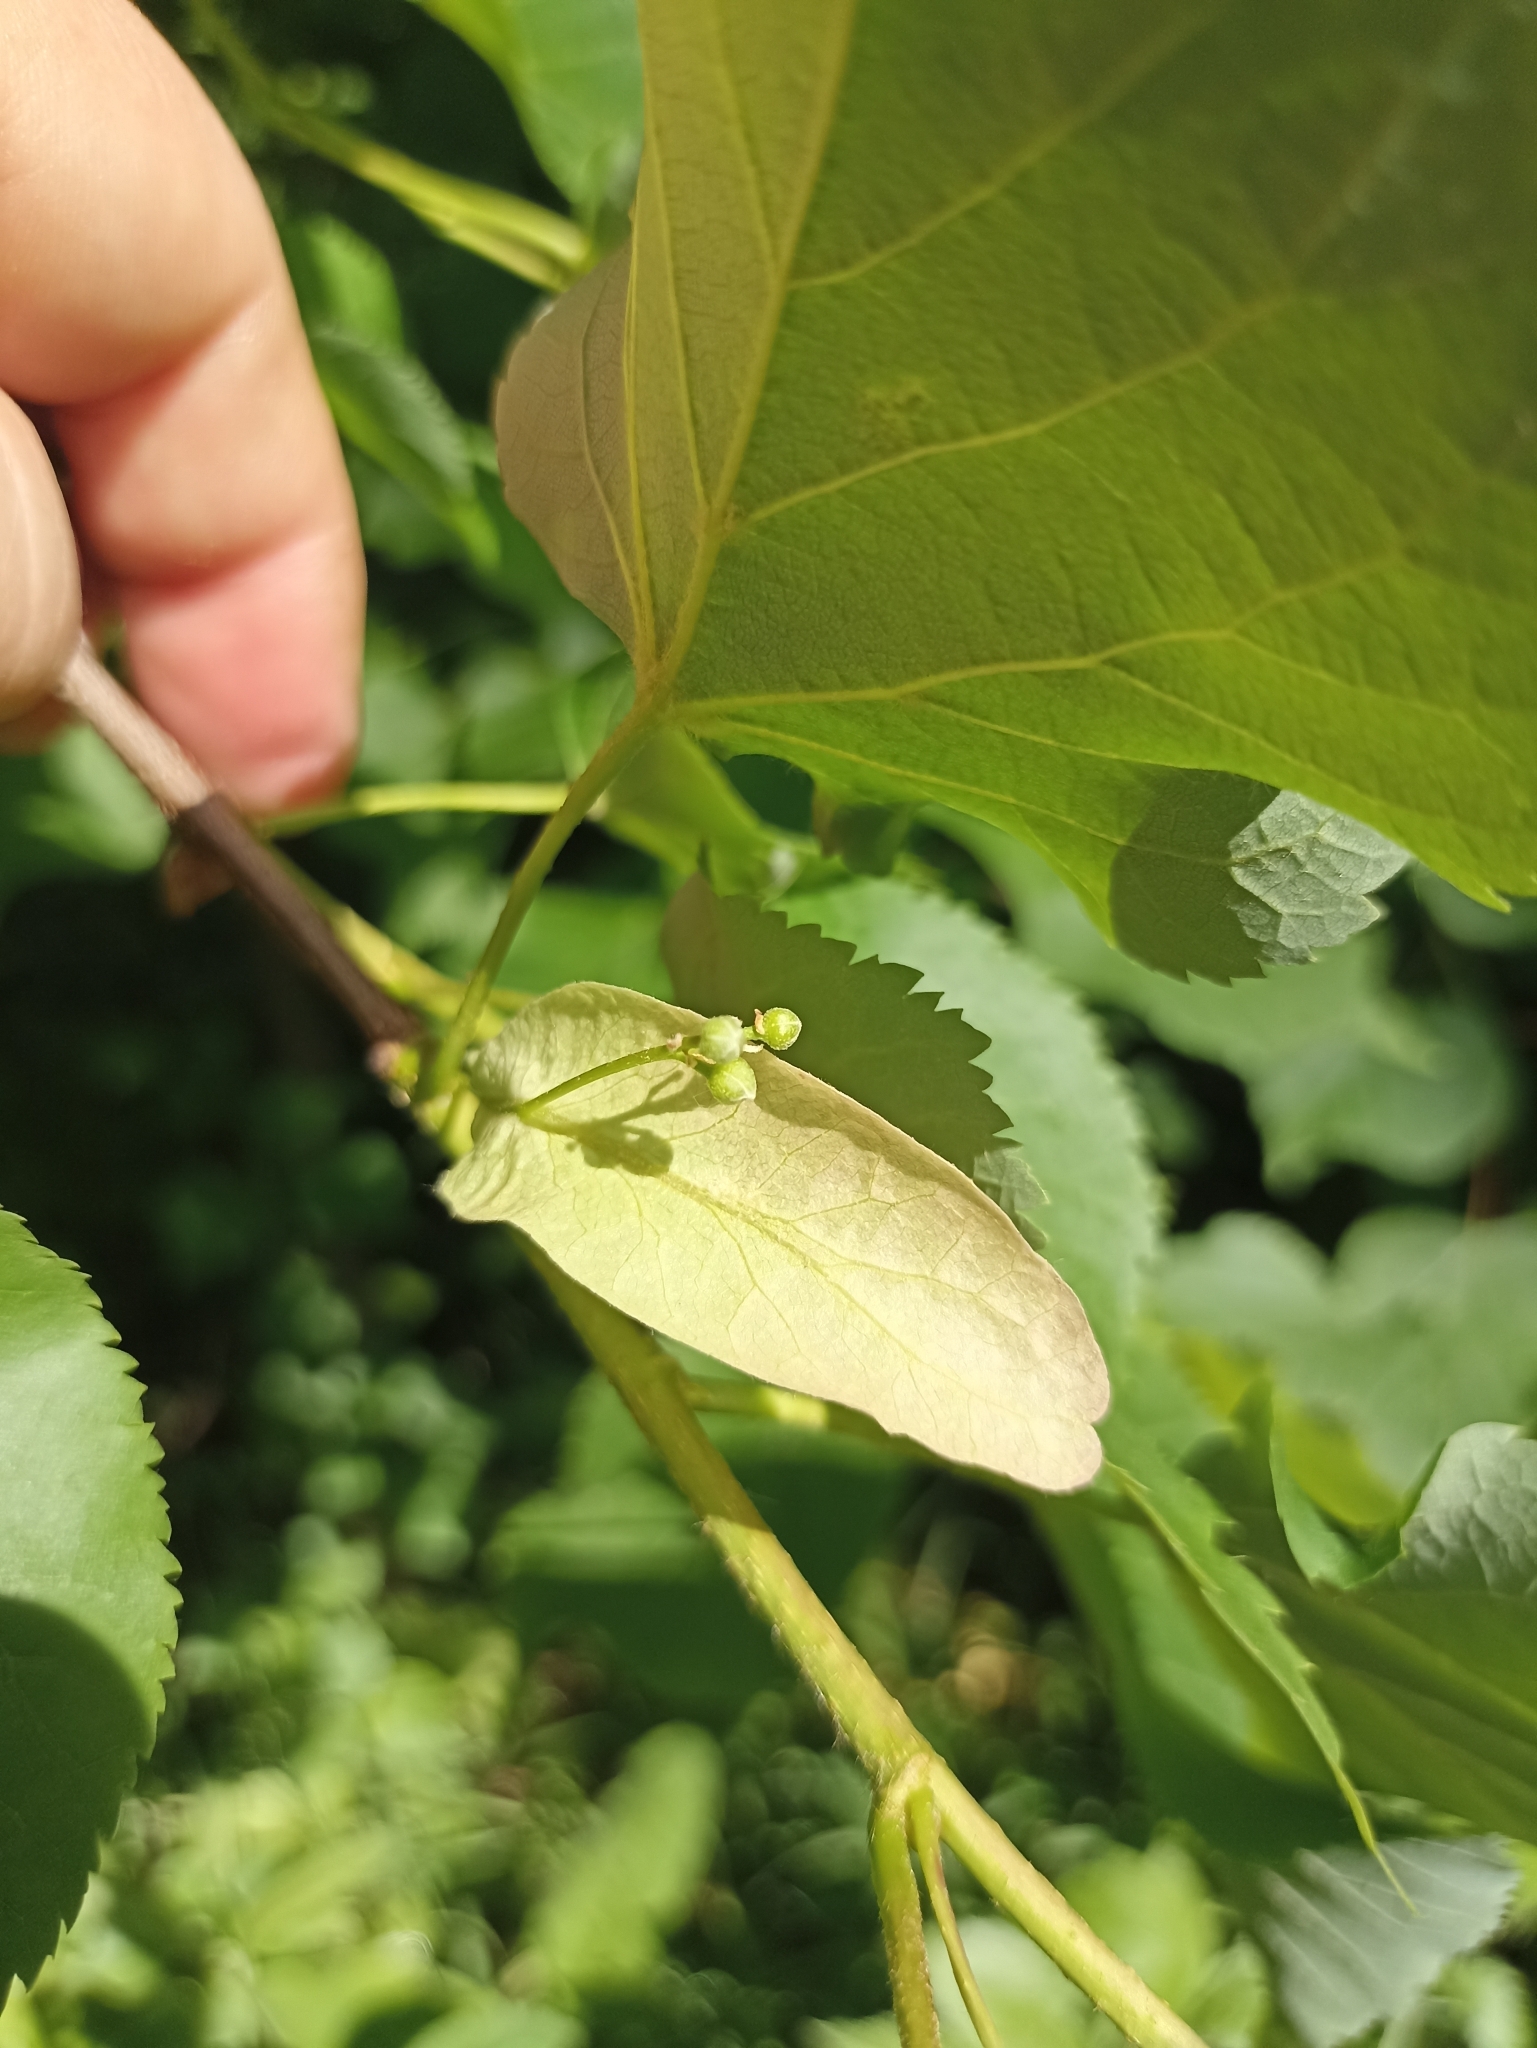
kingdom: Plantae
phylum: Tracheophyta
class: Magnoliopsida
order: Malvales
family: Malvaceae
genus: Tilia
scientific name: Tilia cordata
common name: Small-leaved lime
